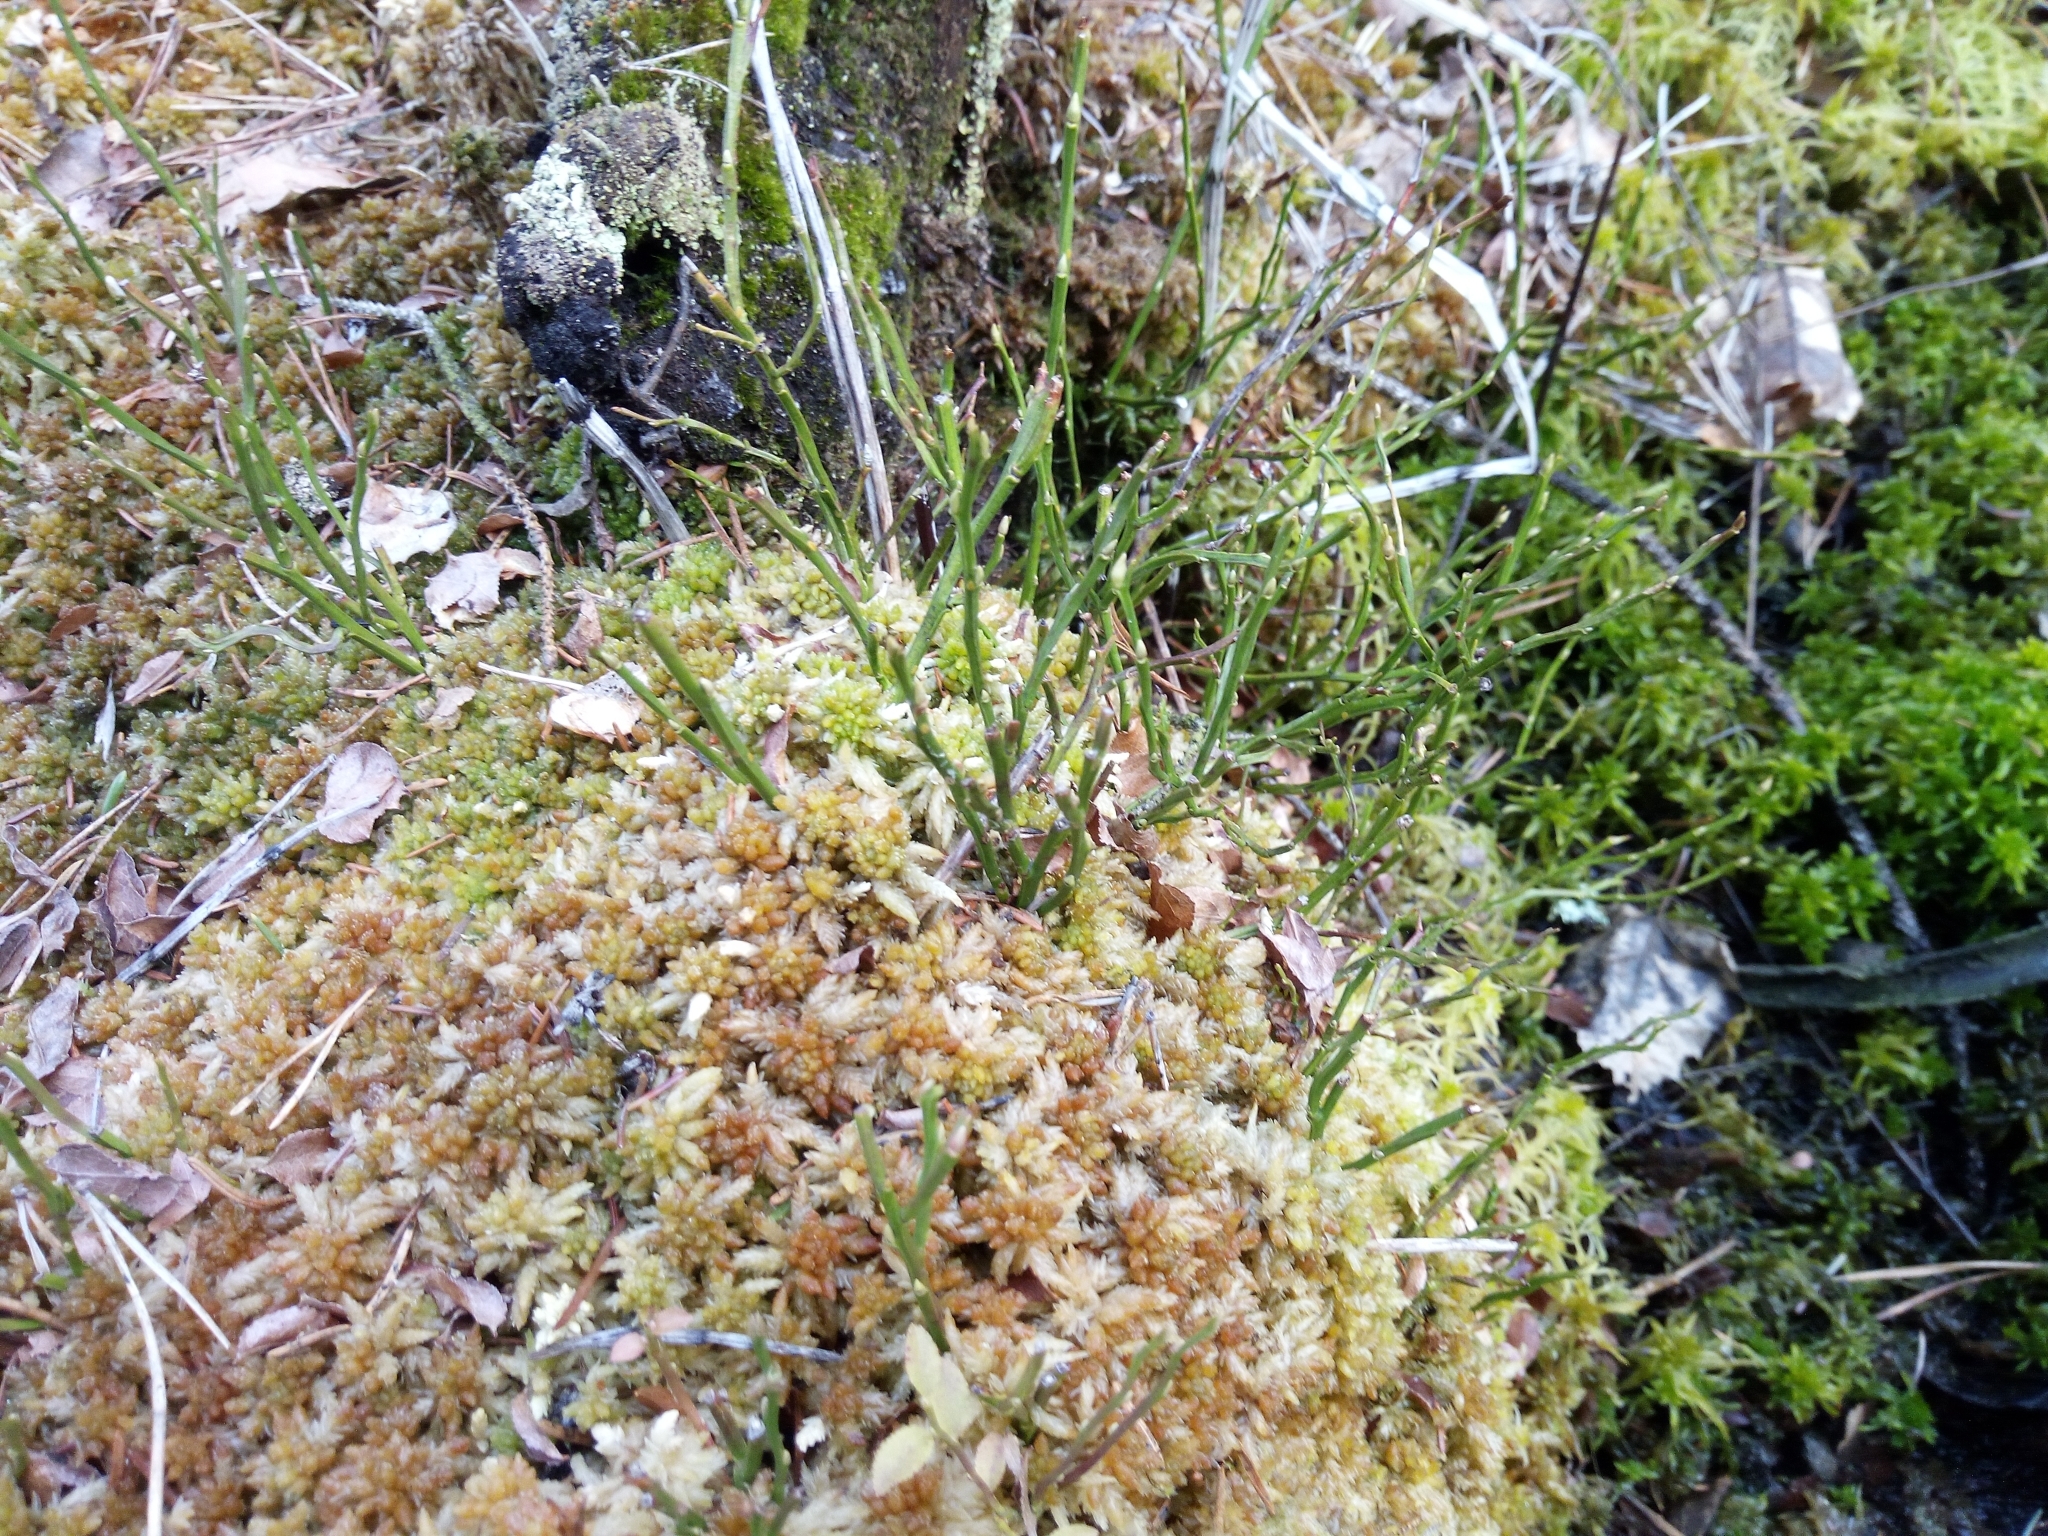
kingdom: Plantae
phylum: Tracheophyta
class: Magnoliopsida
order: Ericales
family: Ericaceae
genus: Vaccinium
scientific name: Vaccinium myrtillus
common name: Bilberry
